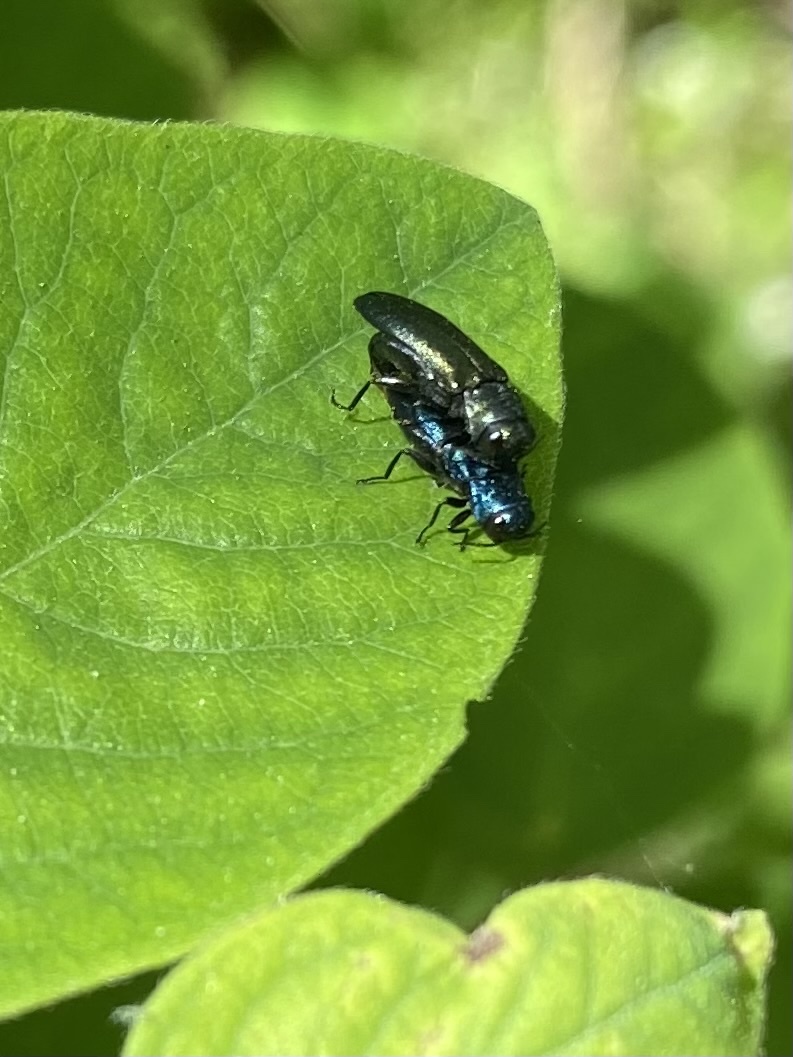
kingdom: Animalia
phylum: Arthropoda
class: Insecta
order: Coleoptera
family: Buprestidae
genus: Agrilus
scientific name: Agrilus cyanescens
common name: Bluish borer beetle
